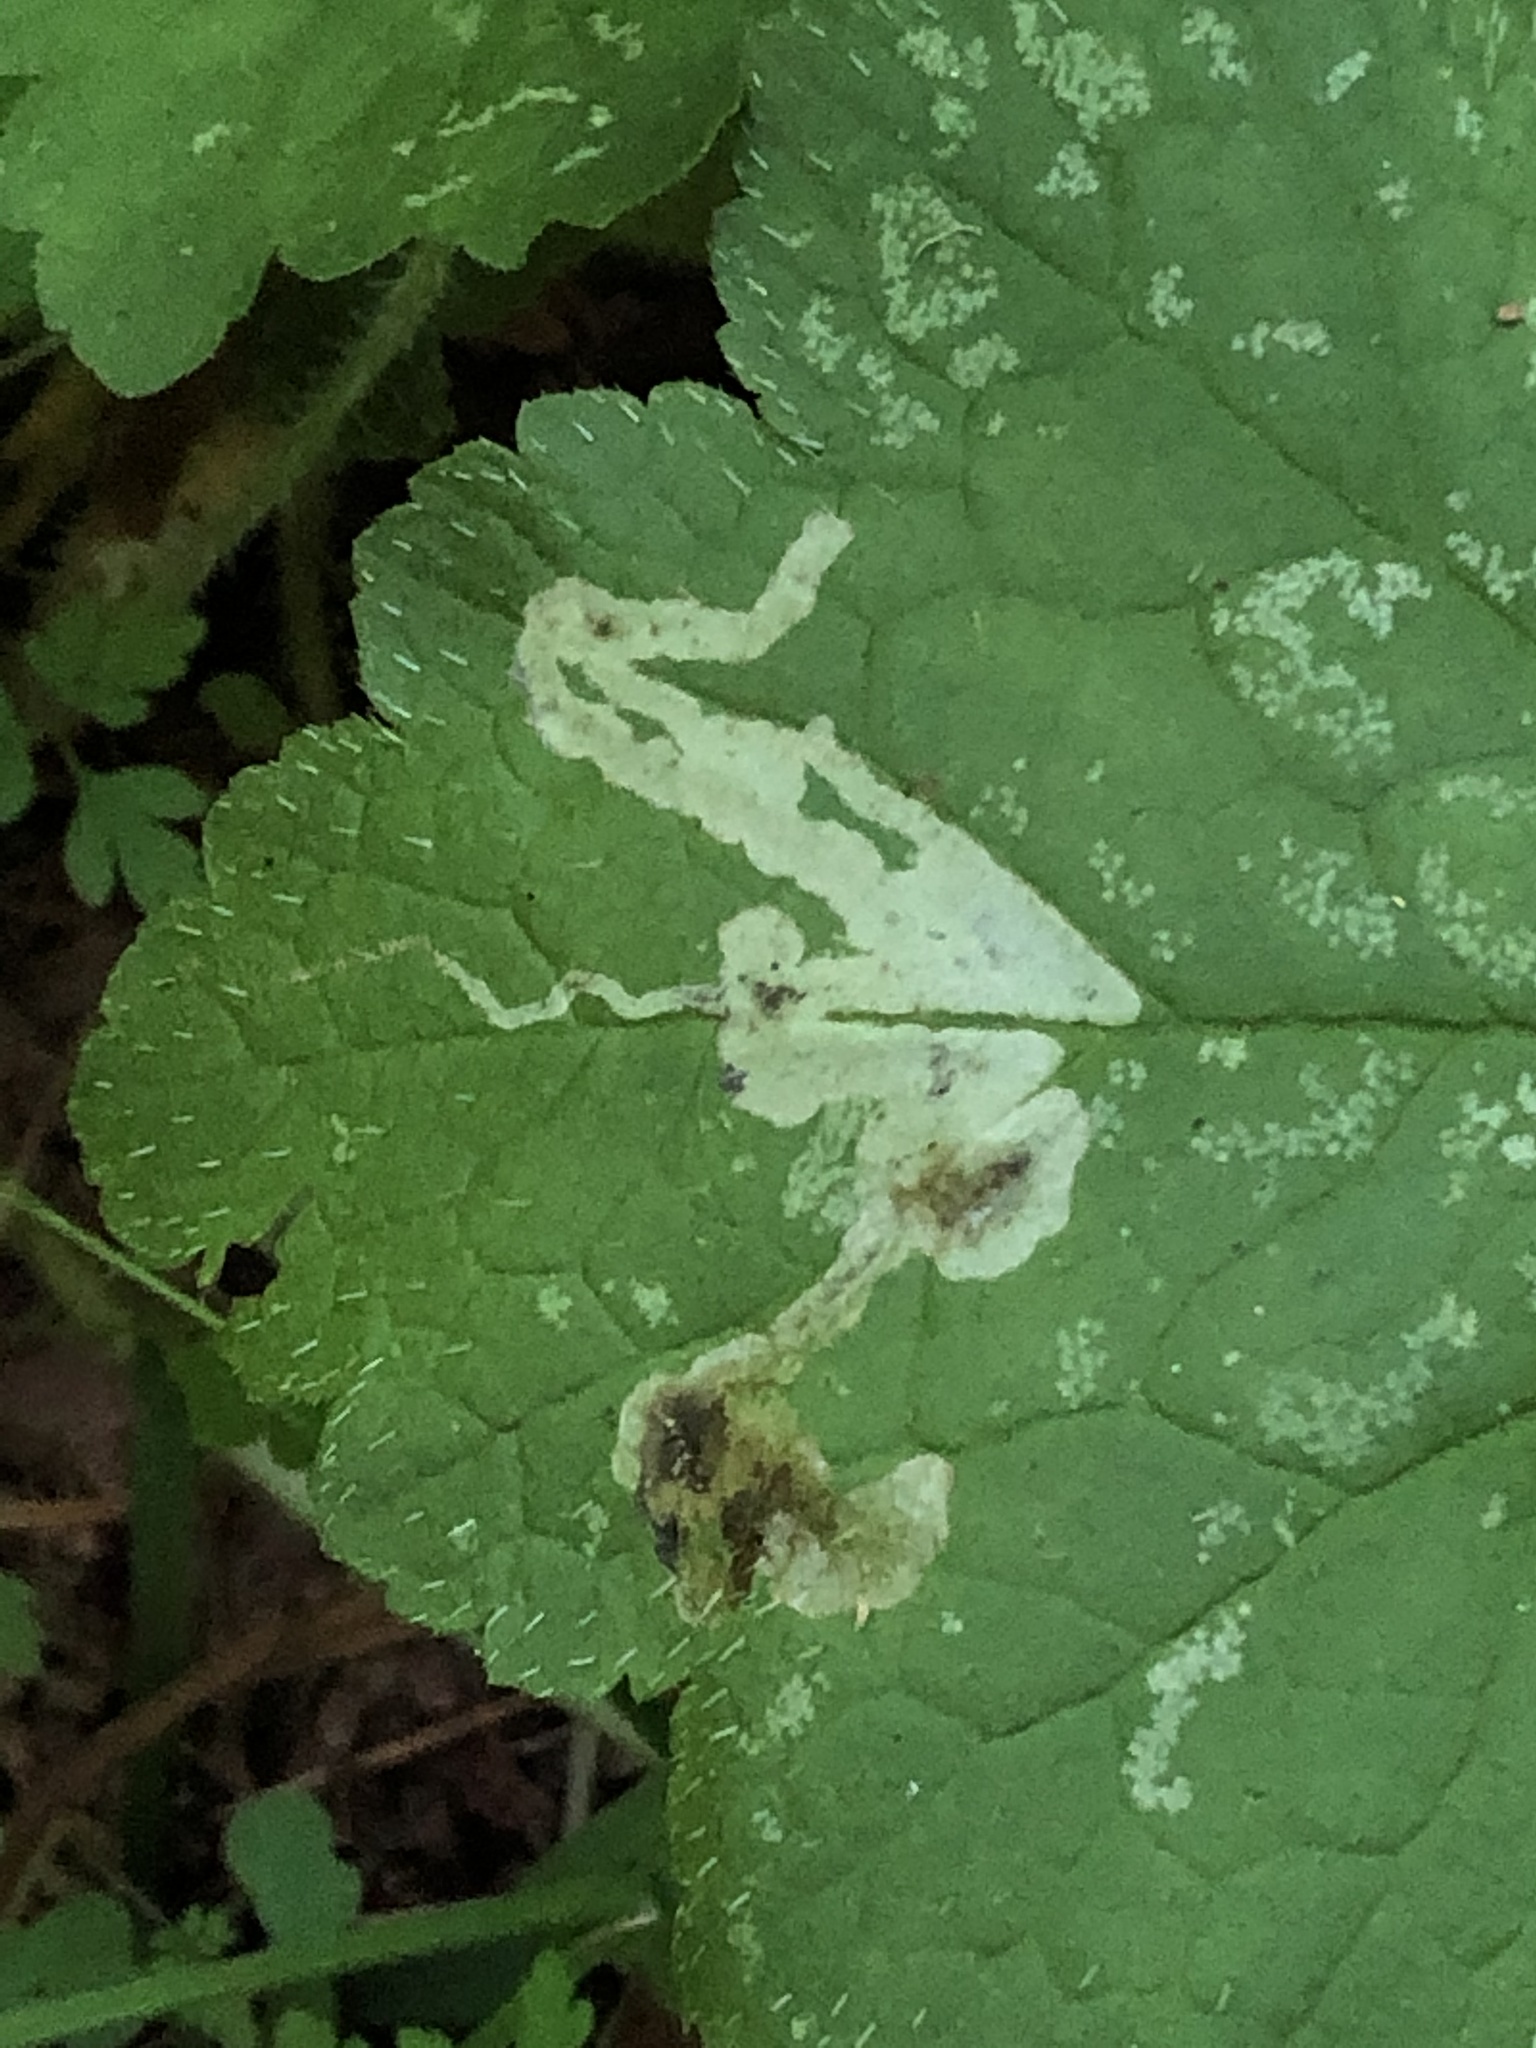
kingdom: Animalia
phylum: Arthropoda
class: Insecta
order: Diptera
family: Agromyzidae
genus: Phytomyza
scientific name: Phytomyza tiarellae
